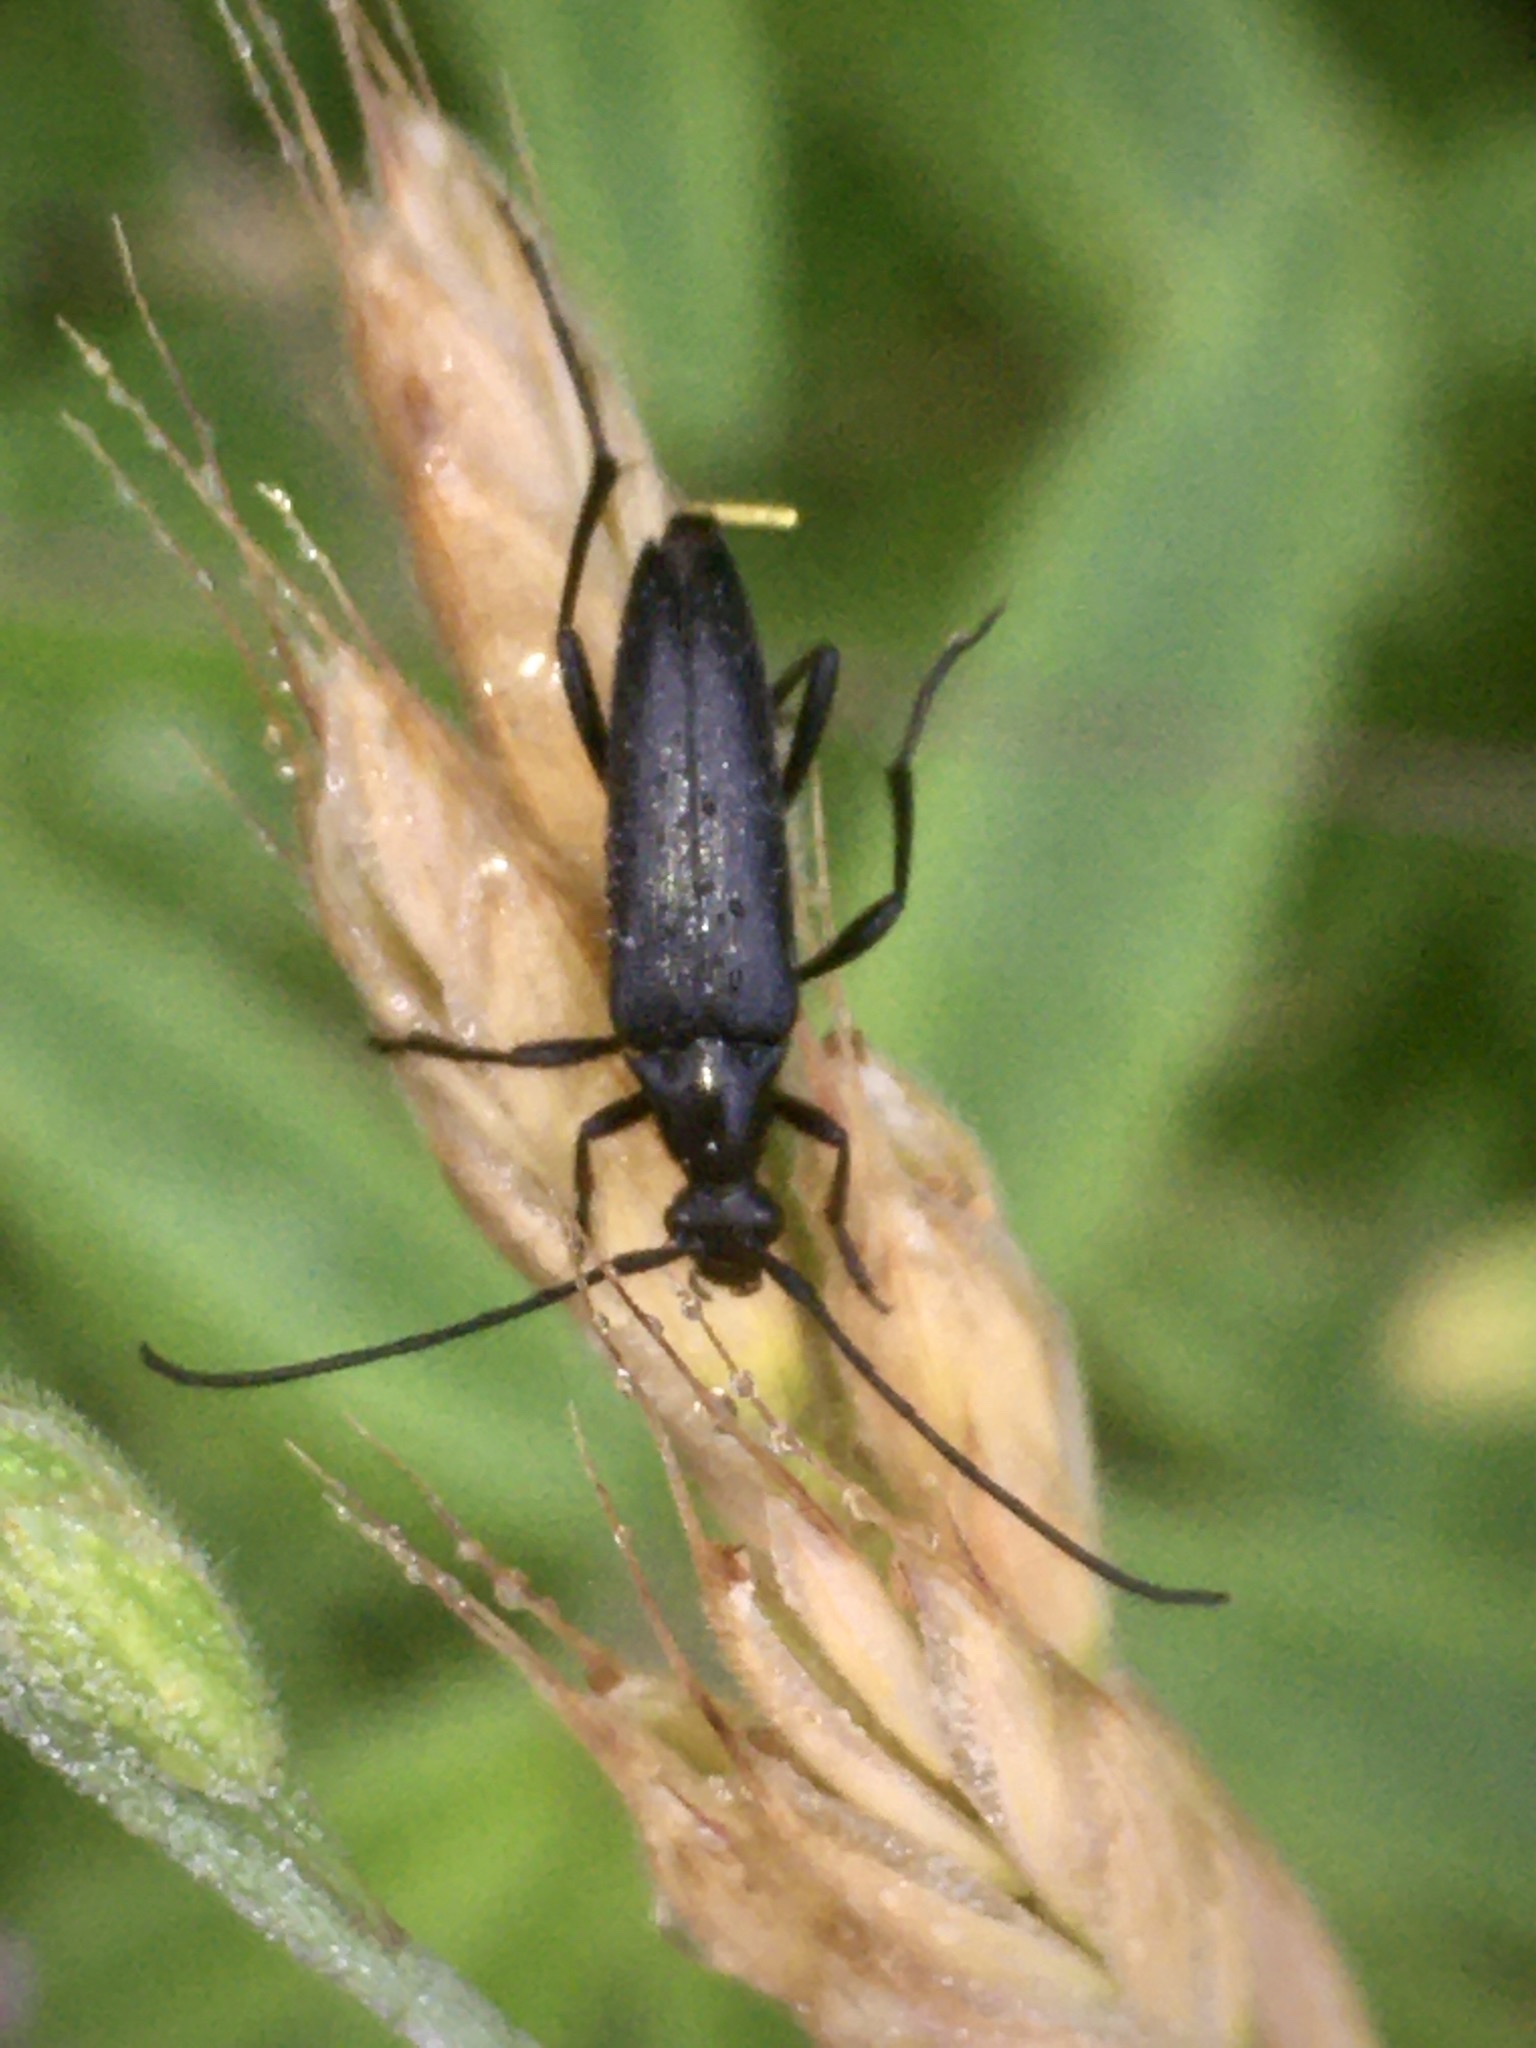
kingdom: Animalia
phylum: Arthropoda
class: Insecta
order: Coleoptera
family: Cerambycidae
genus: Stenurella
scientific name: Stenurella nigra
